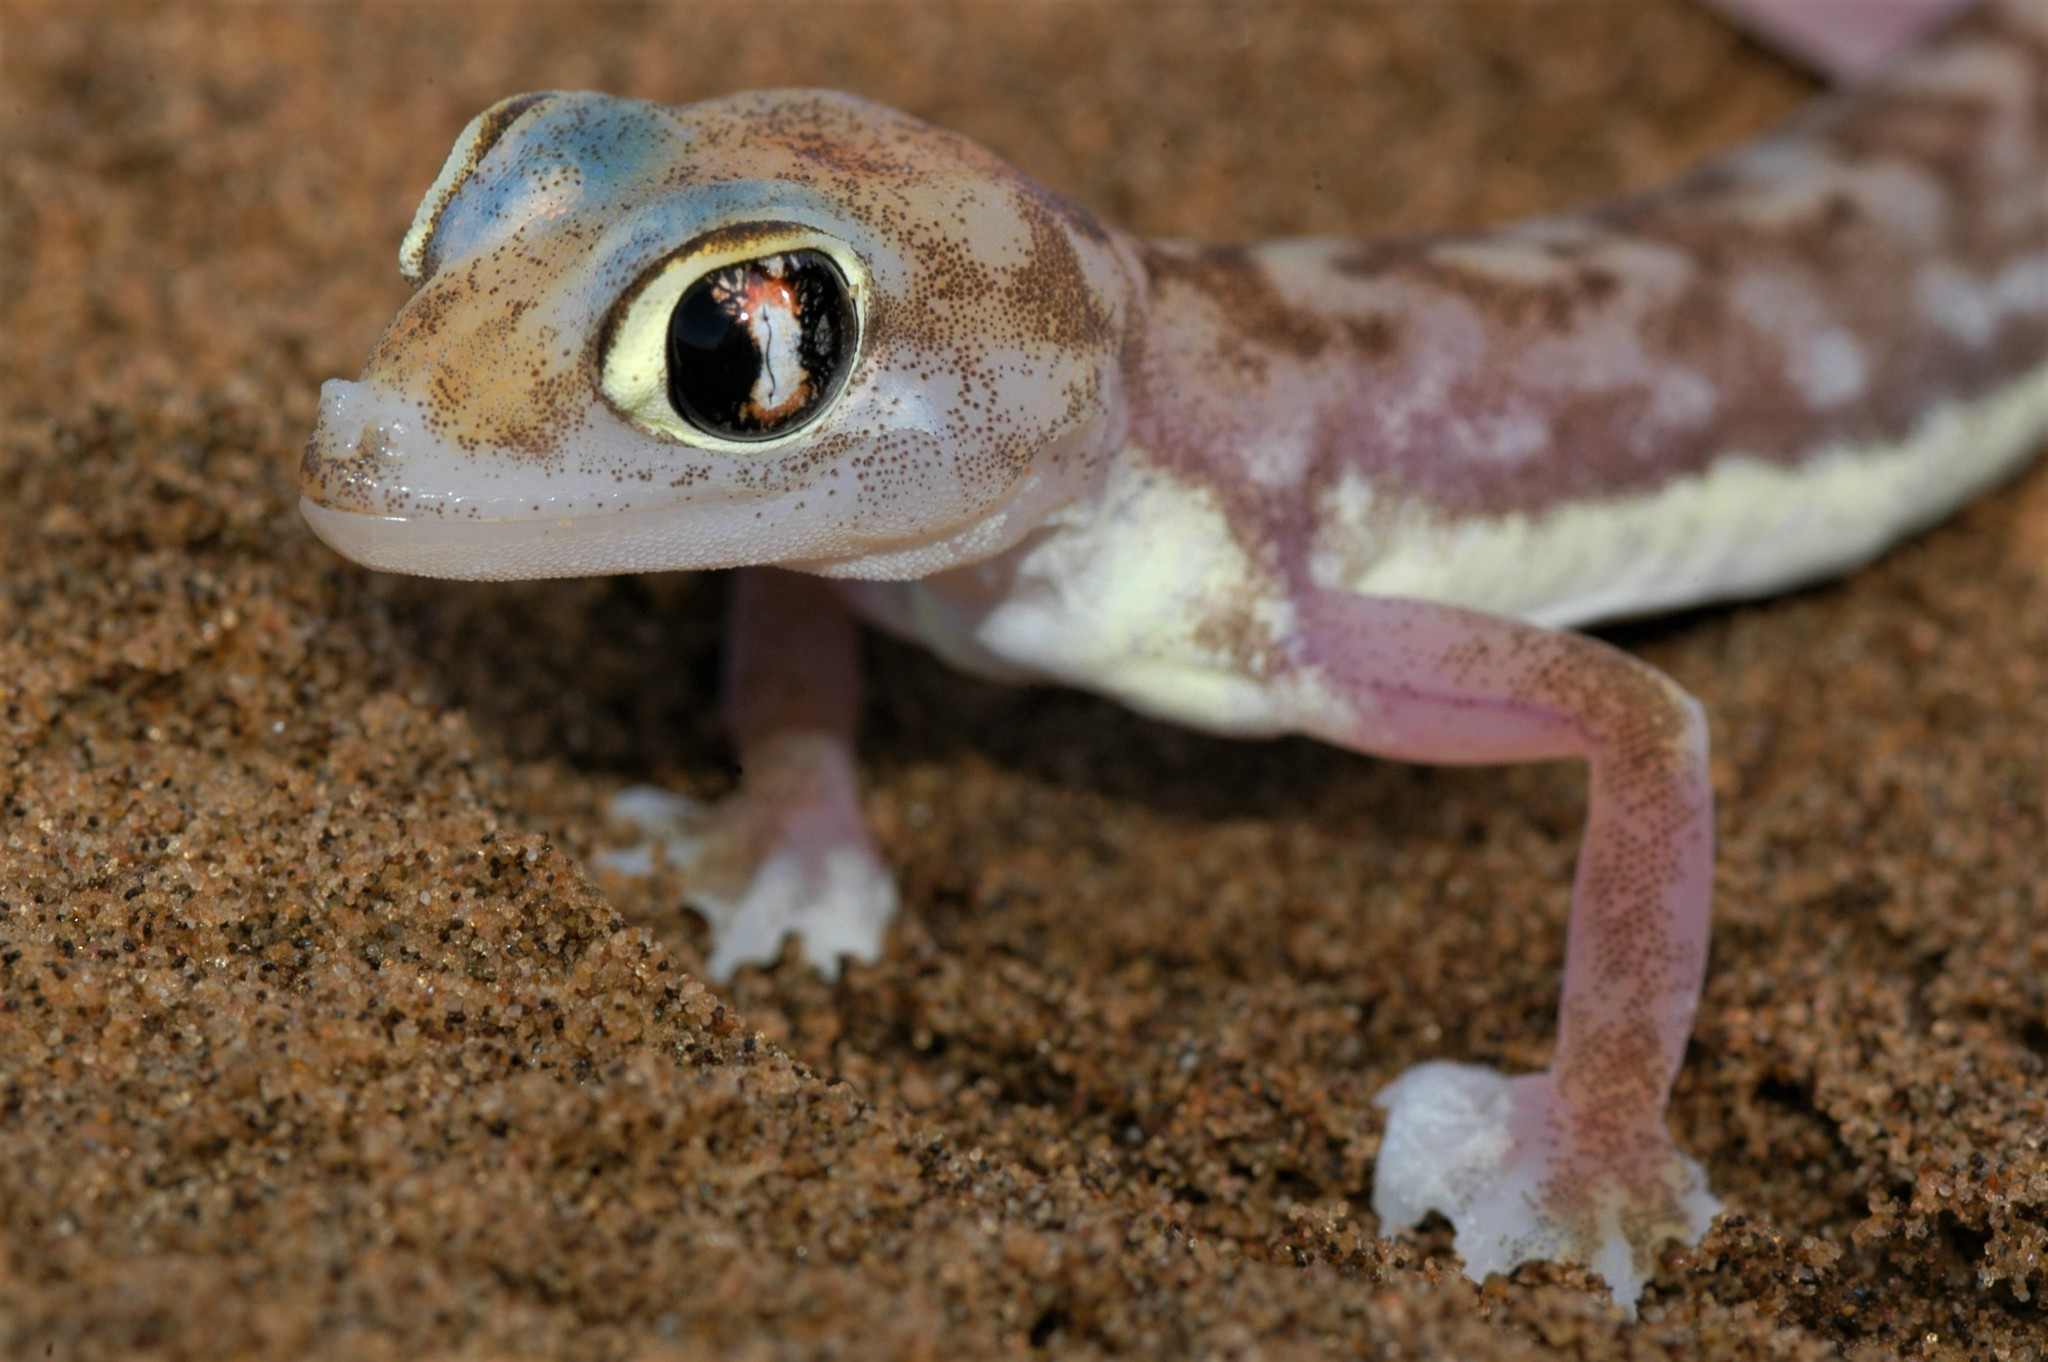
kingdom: Animalia
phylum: Chordata
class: Squamata
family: Gekkonidae
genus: Pachydactylus
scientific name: Pachydactylus rangei
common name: Namib sand gecko
